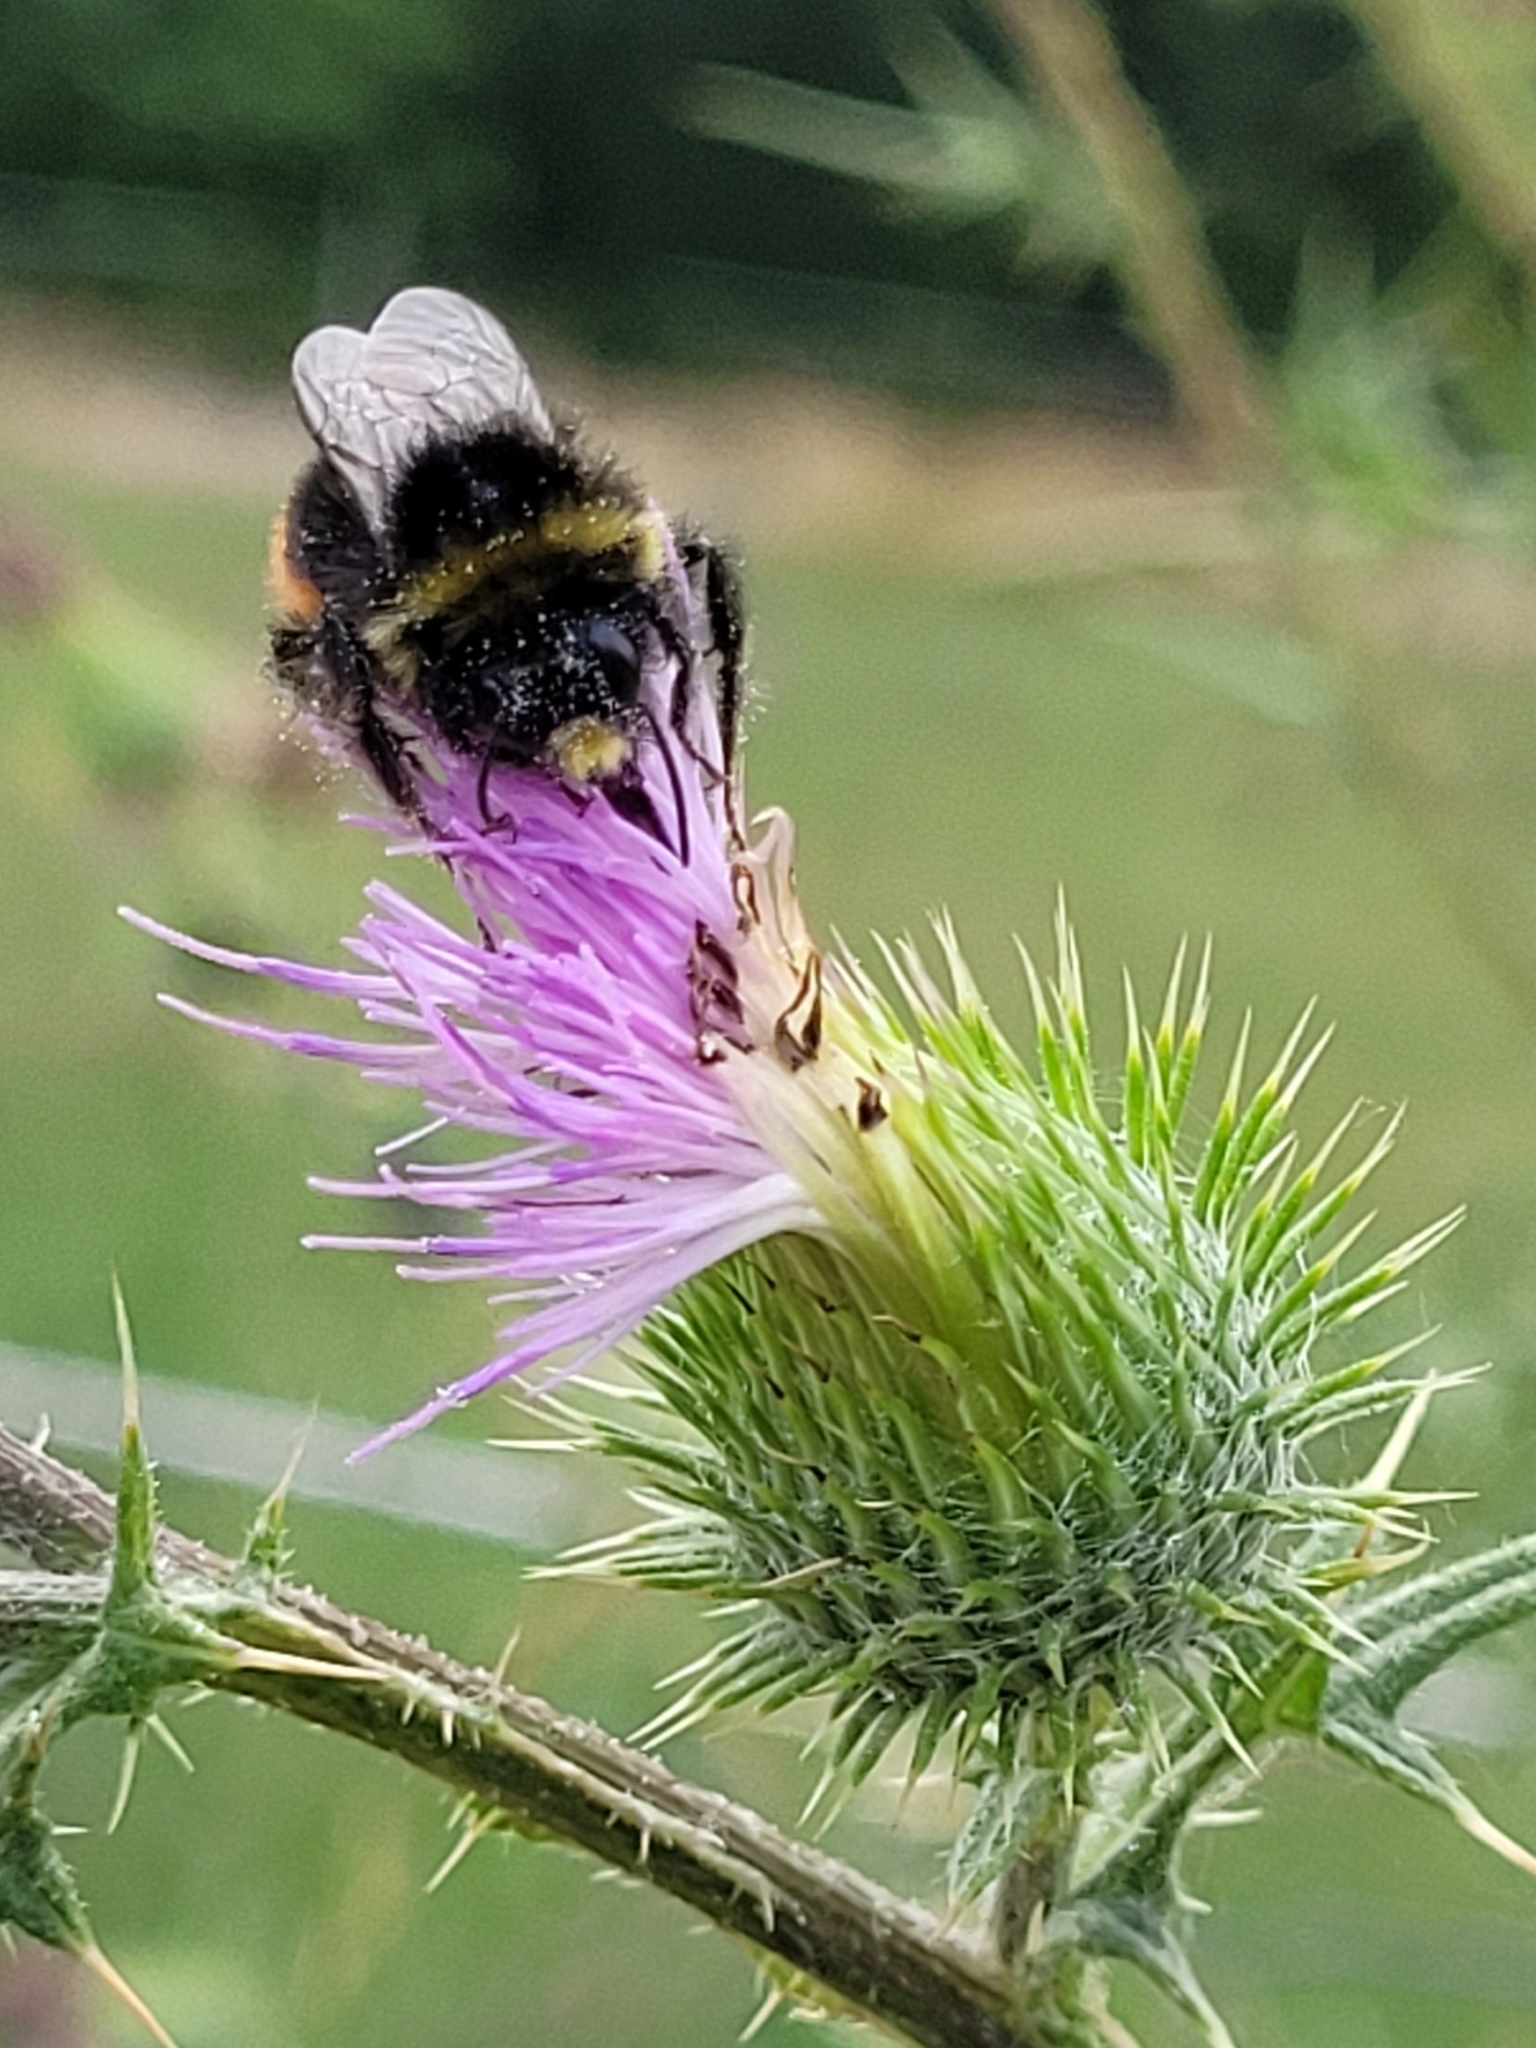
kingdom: Animalia
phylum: Arthropoda
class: Insecta
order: Hymenoptera
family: Apidae
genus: Bombus
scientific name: Bombus lapidarius
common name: Large red-tailed humble-bee
